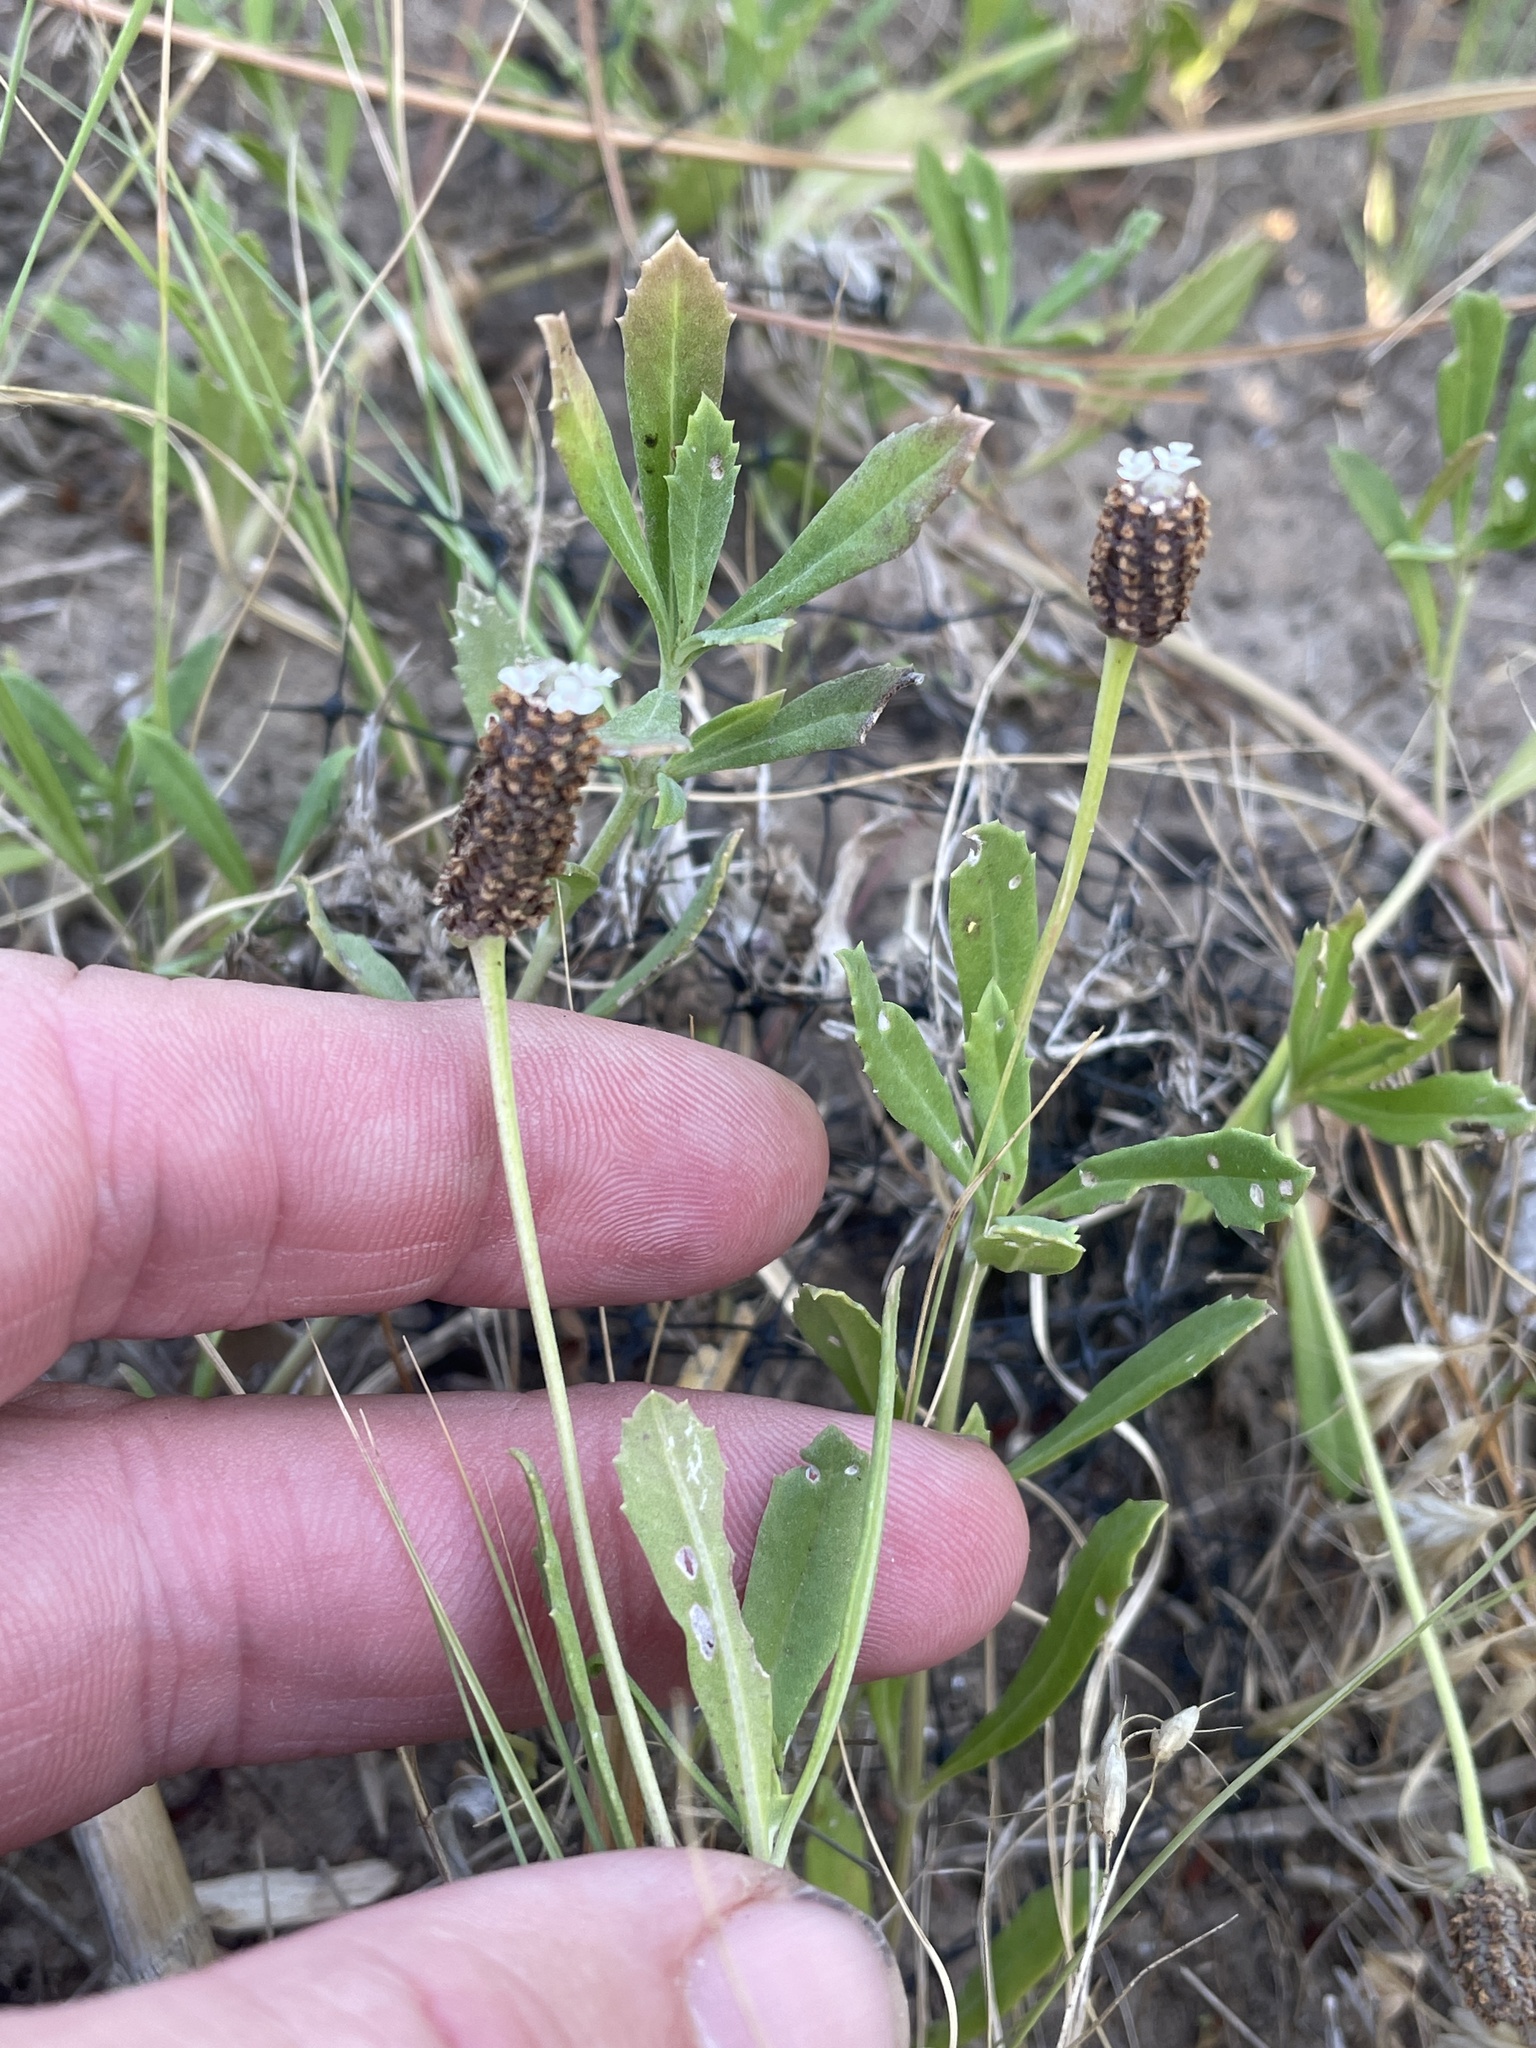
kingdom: Plantae
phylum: Tracheophyta
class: Magnoliopsida
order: Lamiales
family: Verbenaceae
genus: Phyla
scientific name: Phyla nodiflora
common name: Frogfruit
